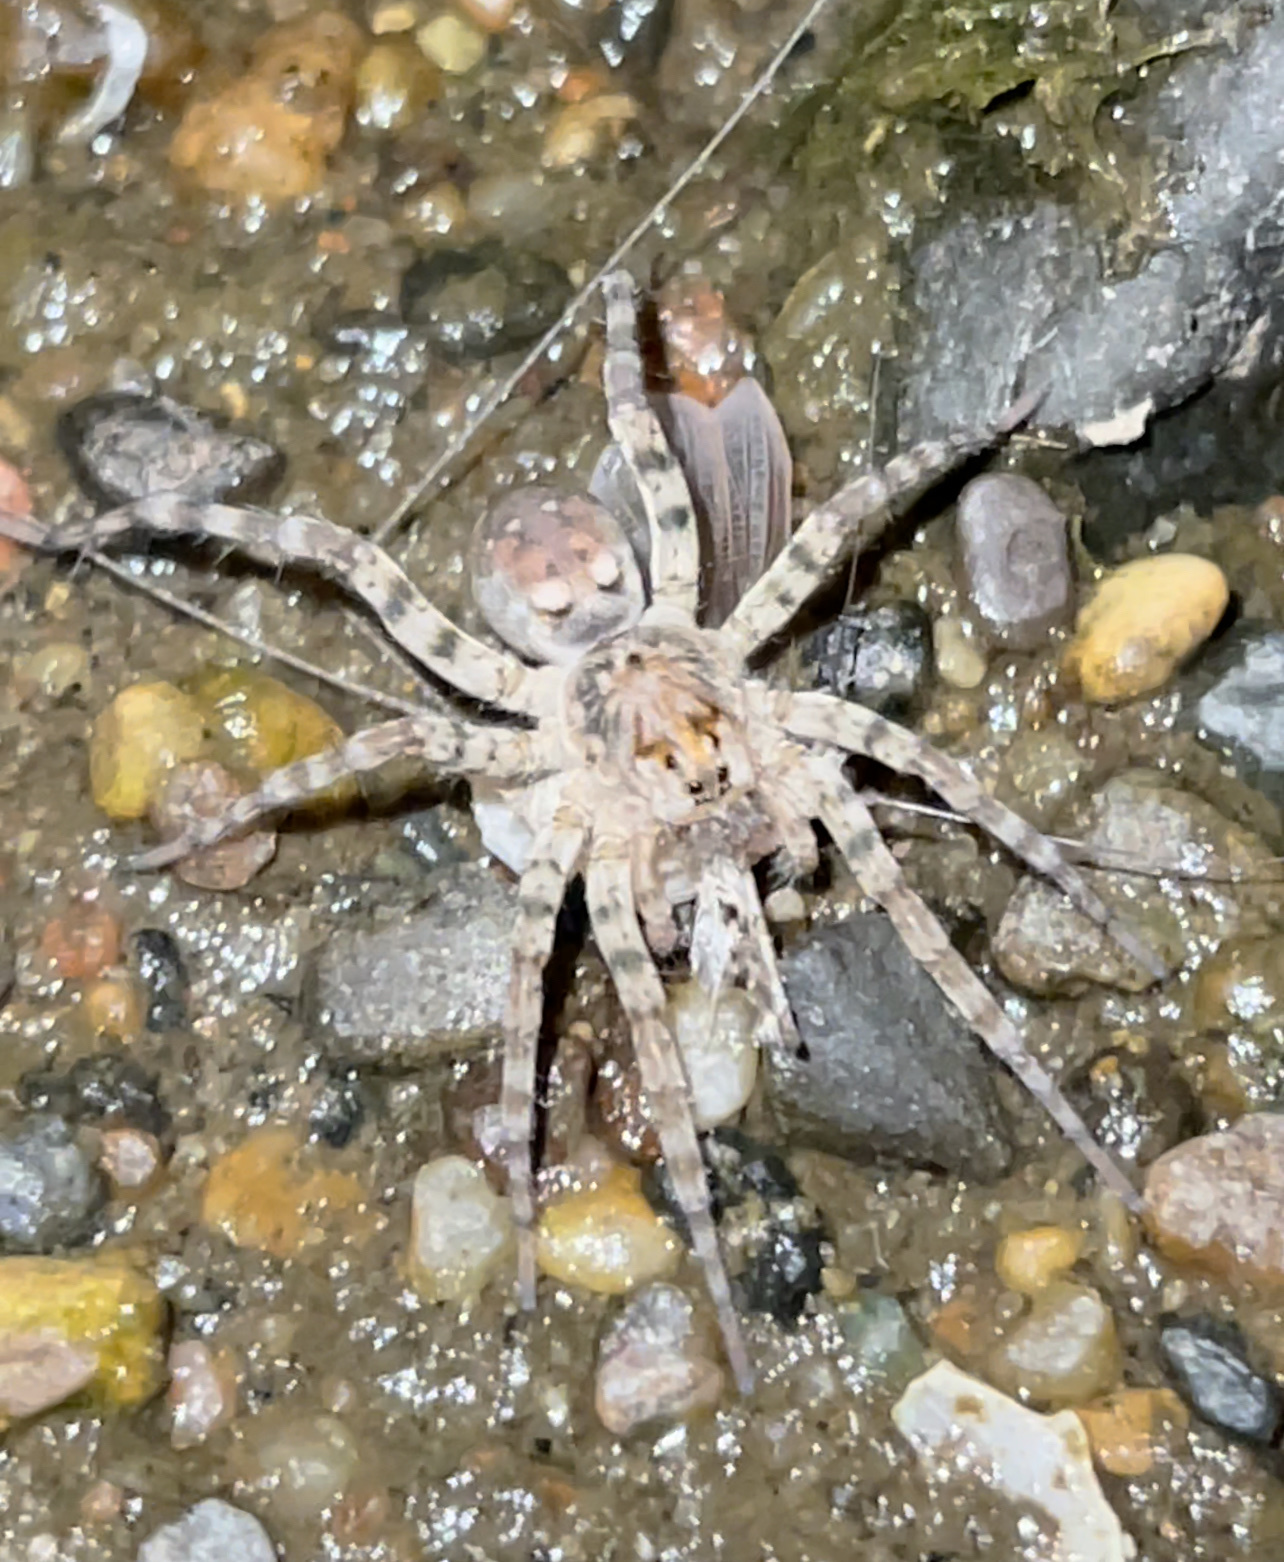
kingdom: Animalia
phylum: Arthropoda
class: Arachnida
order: Araneae
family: Lycosidae
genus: Arctosa
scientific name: Arctosa littoralis
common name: Wolf spiders
